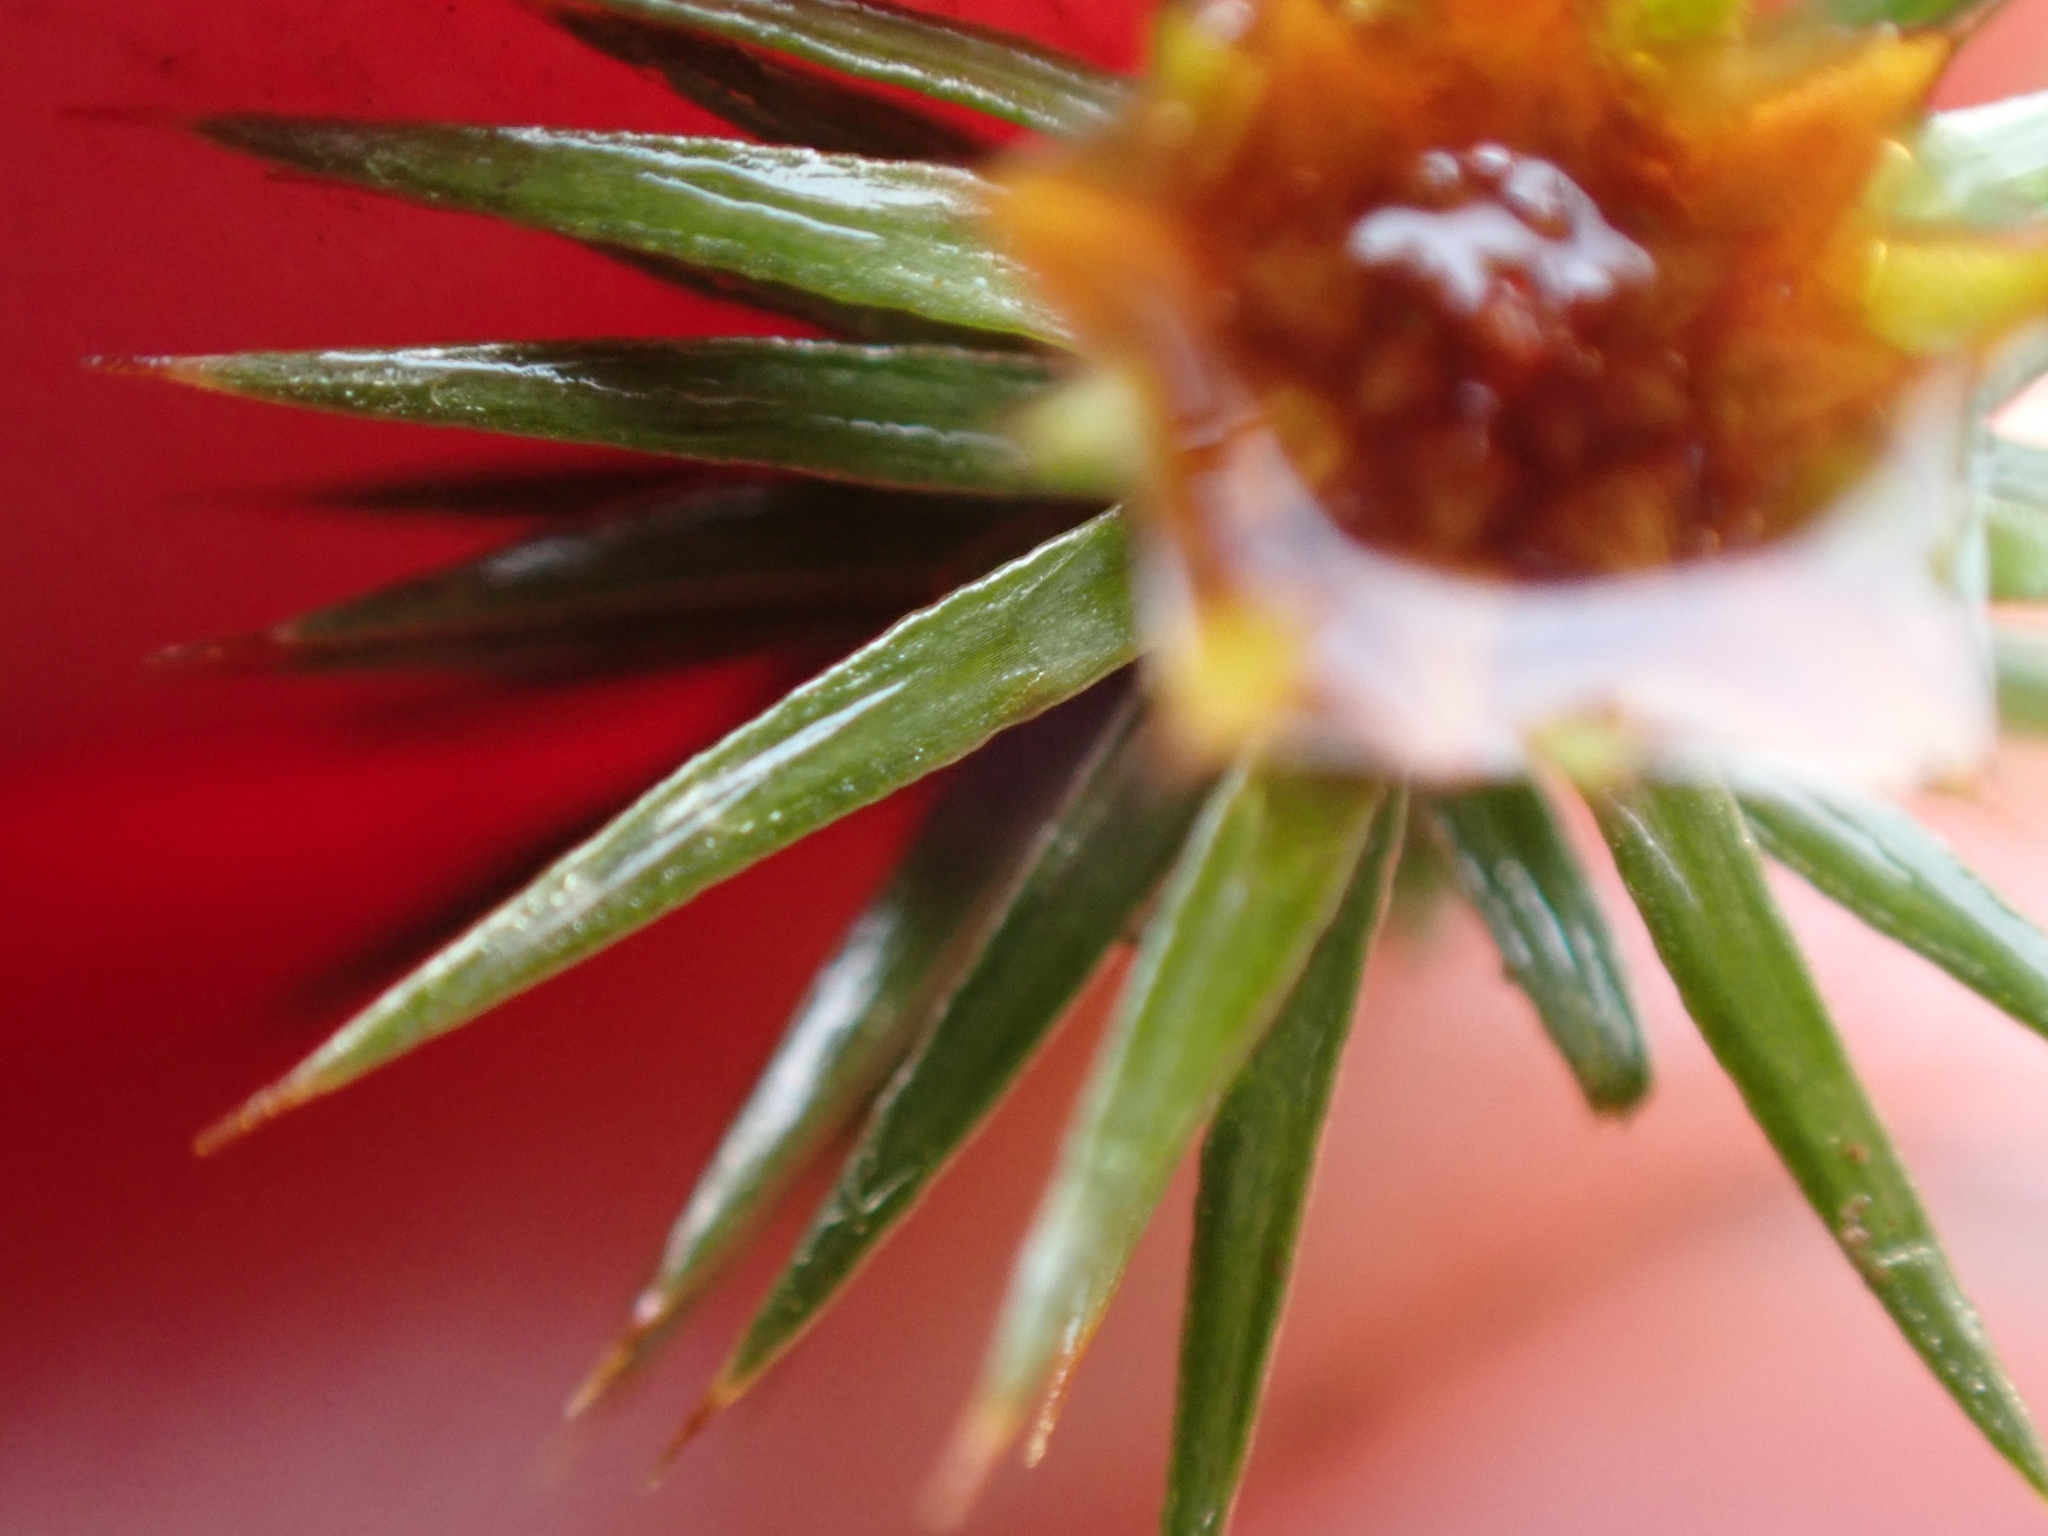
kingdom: Plantae
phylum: Bryophyta
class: Polytrichopsida
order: Polytrichales
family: Polytrichaceae
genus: Polytrichum
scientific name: Polytrichum juniperinum
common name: Juniper haircap moss
